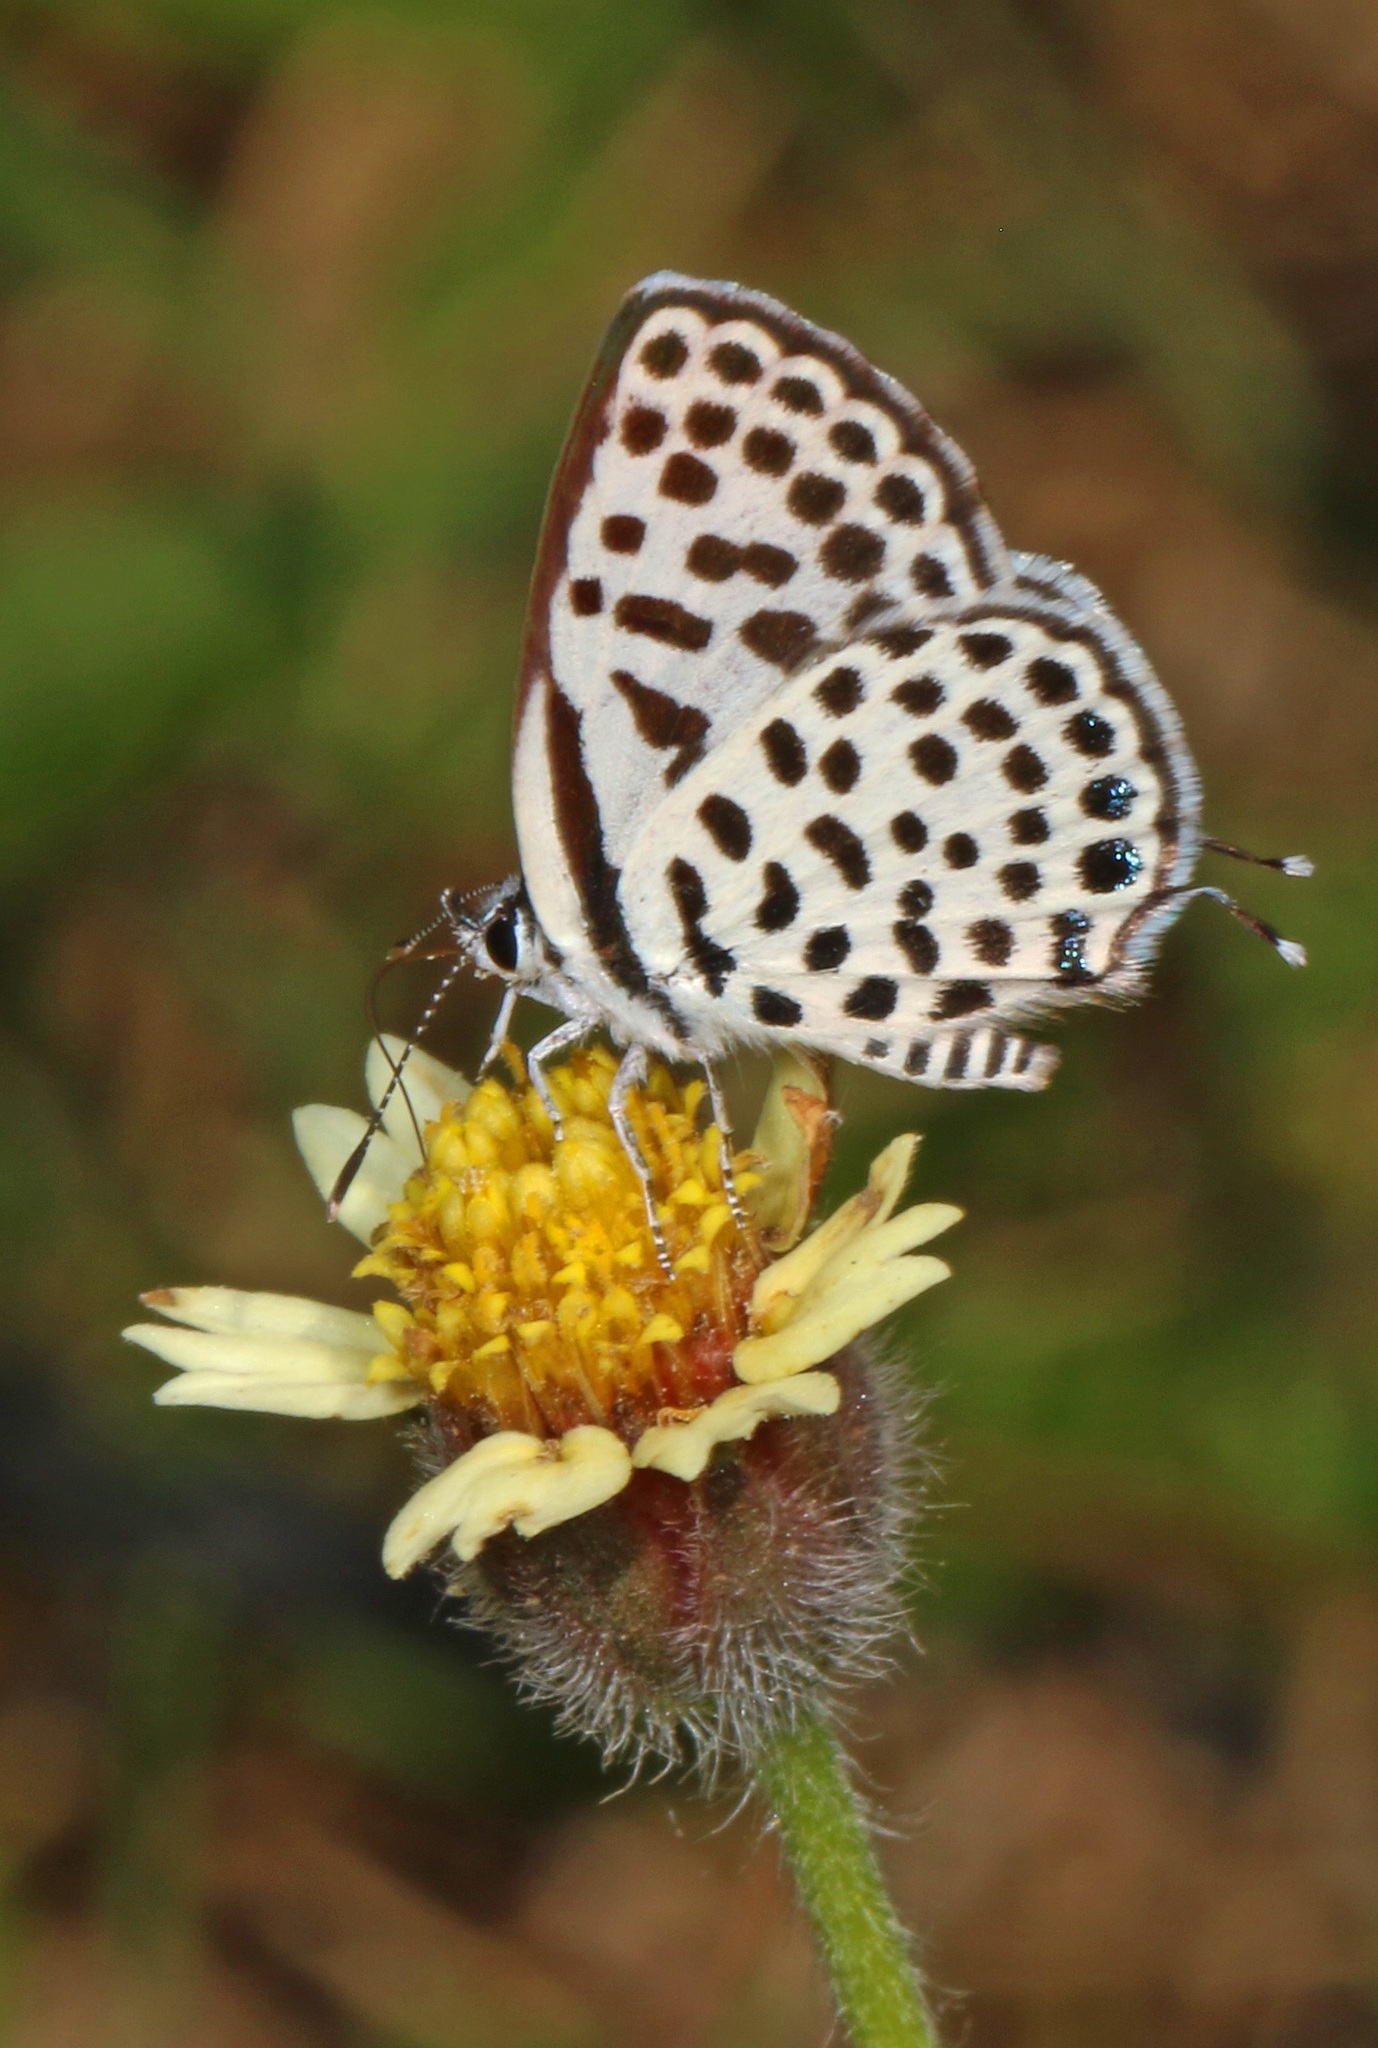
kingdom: Animalia
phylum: Arthropoda
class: Insecta
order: Lepidoptera
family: Lycaenidae
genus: Tarucus
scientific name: Tarucus sybaris
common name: Dotted blue
